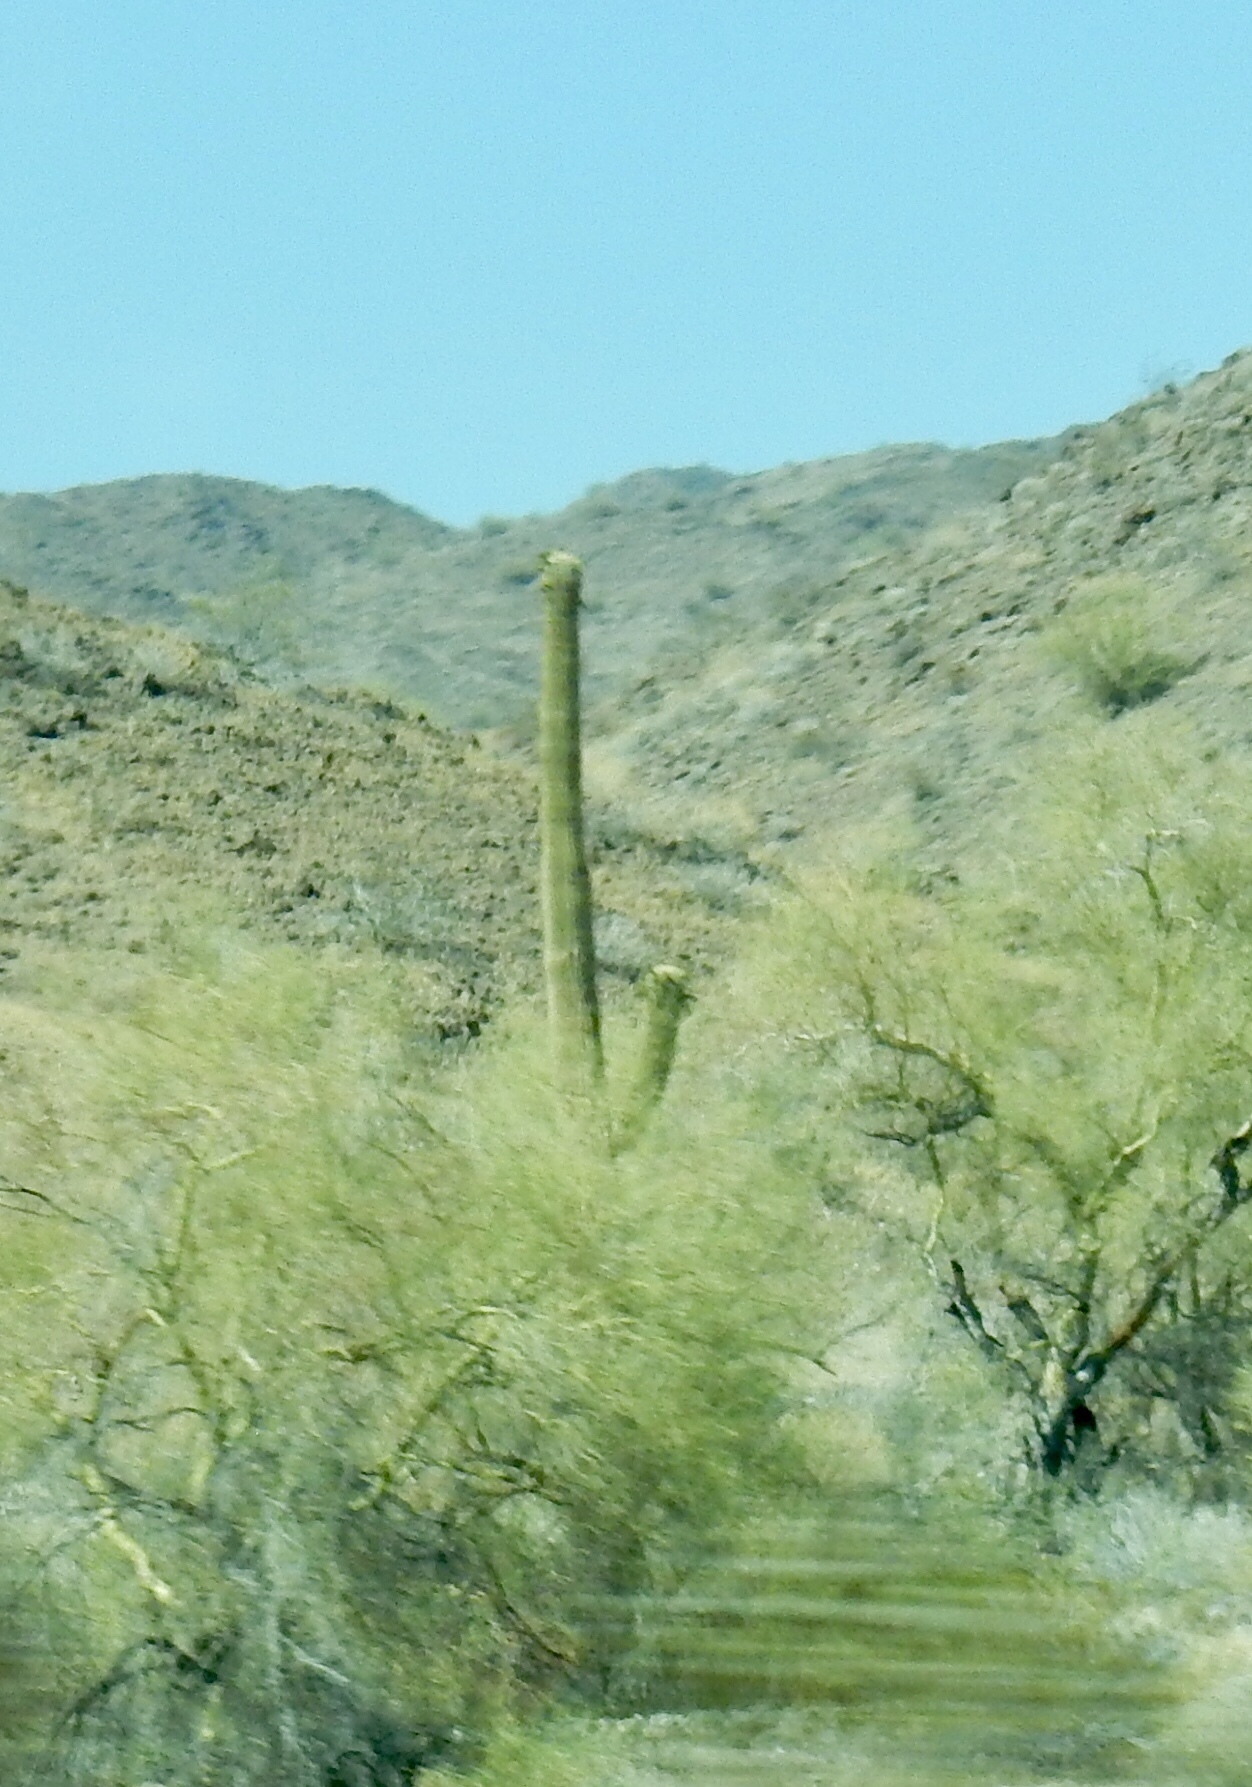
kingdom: Plantae
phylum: Tracheophyta
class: Magnoliopsida
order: Caryophyllales
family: Cactaceae
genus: Carnegiea
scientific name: Carnegiea gigantea
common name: Saguaro
